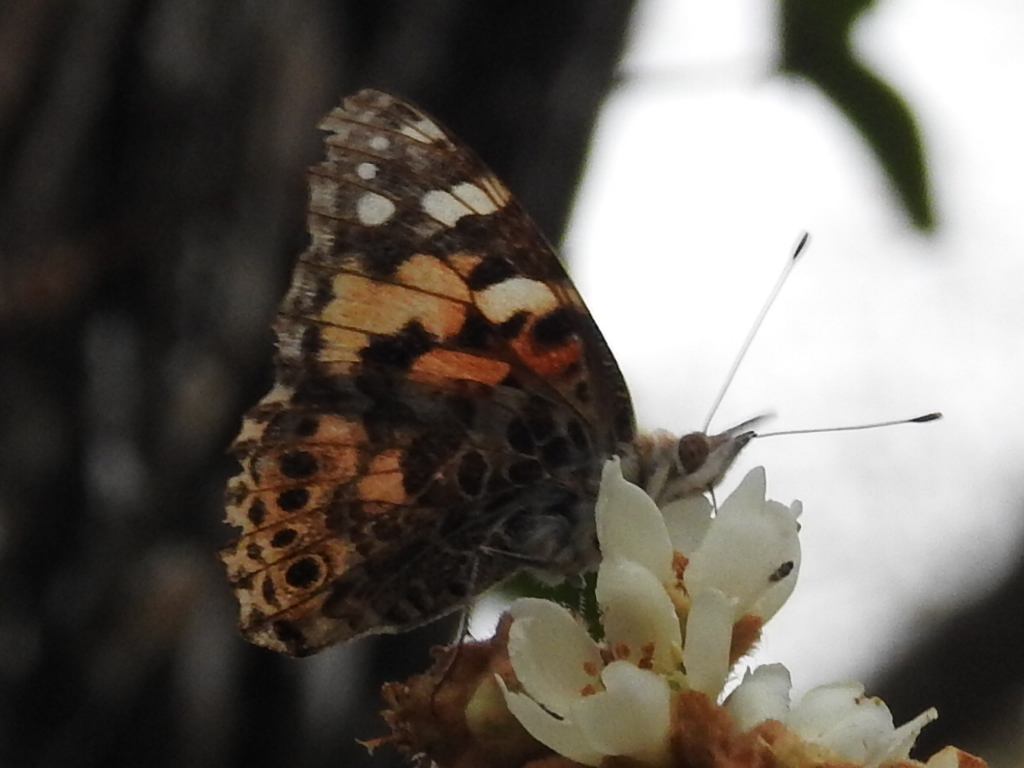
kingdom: Animalia
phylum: Arthropoda
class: Insecta
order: Lepidoptera
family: Nymphalidae
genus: Vanessa
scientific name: Vanessa cardui
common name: Painted lady
